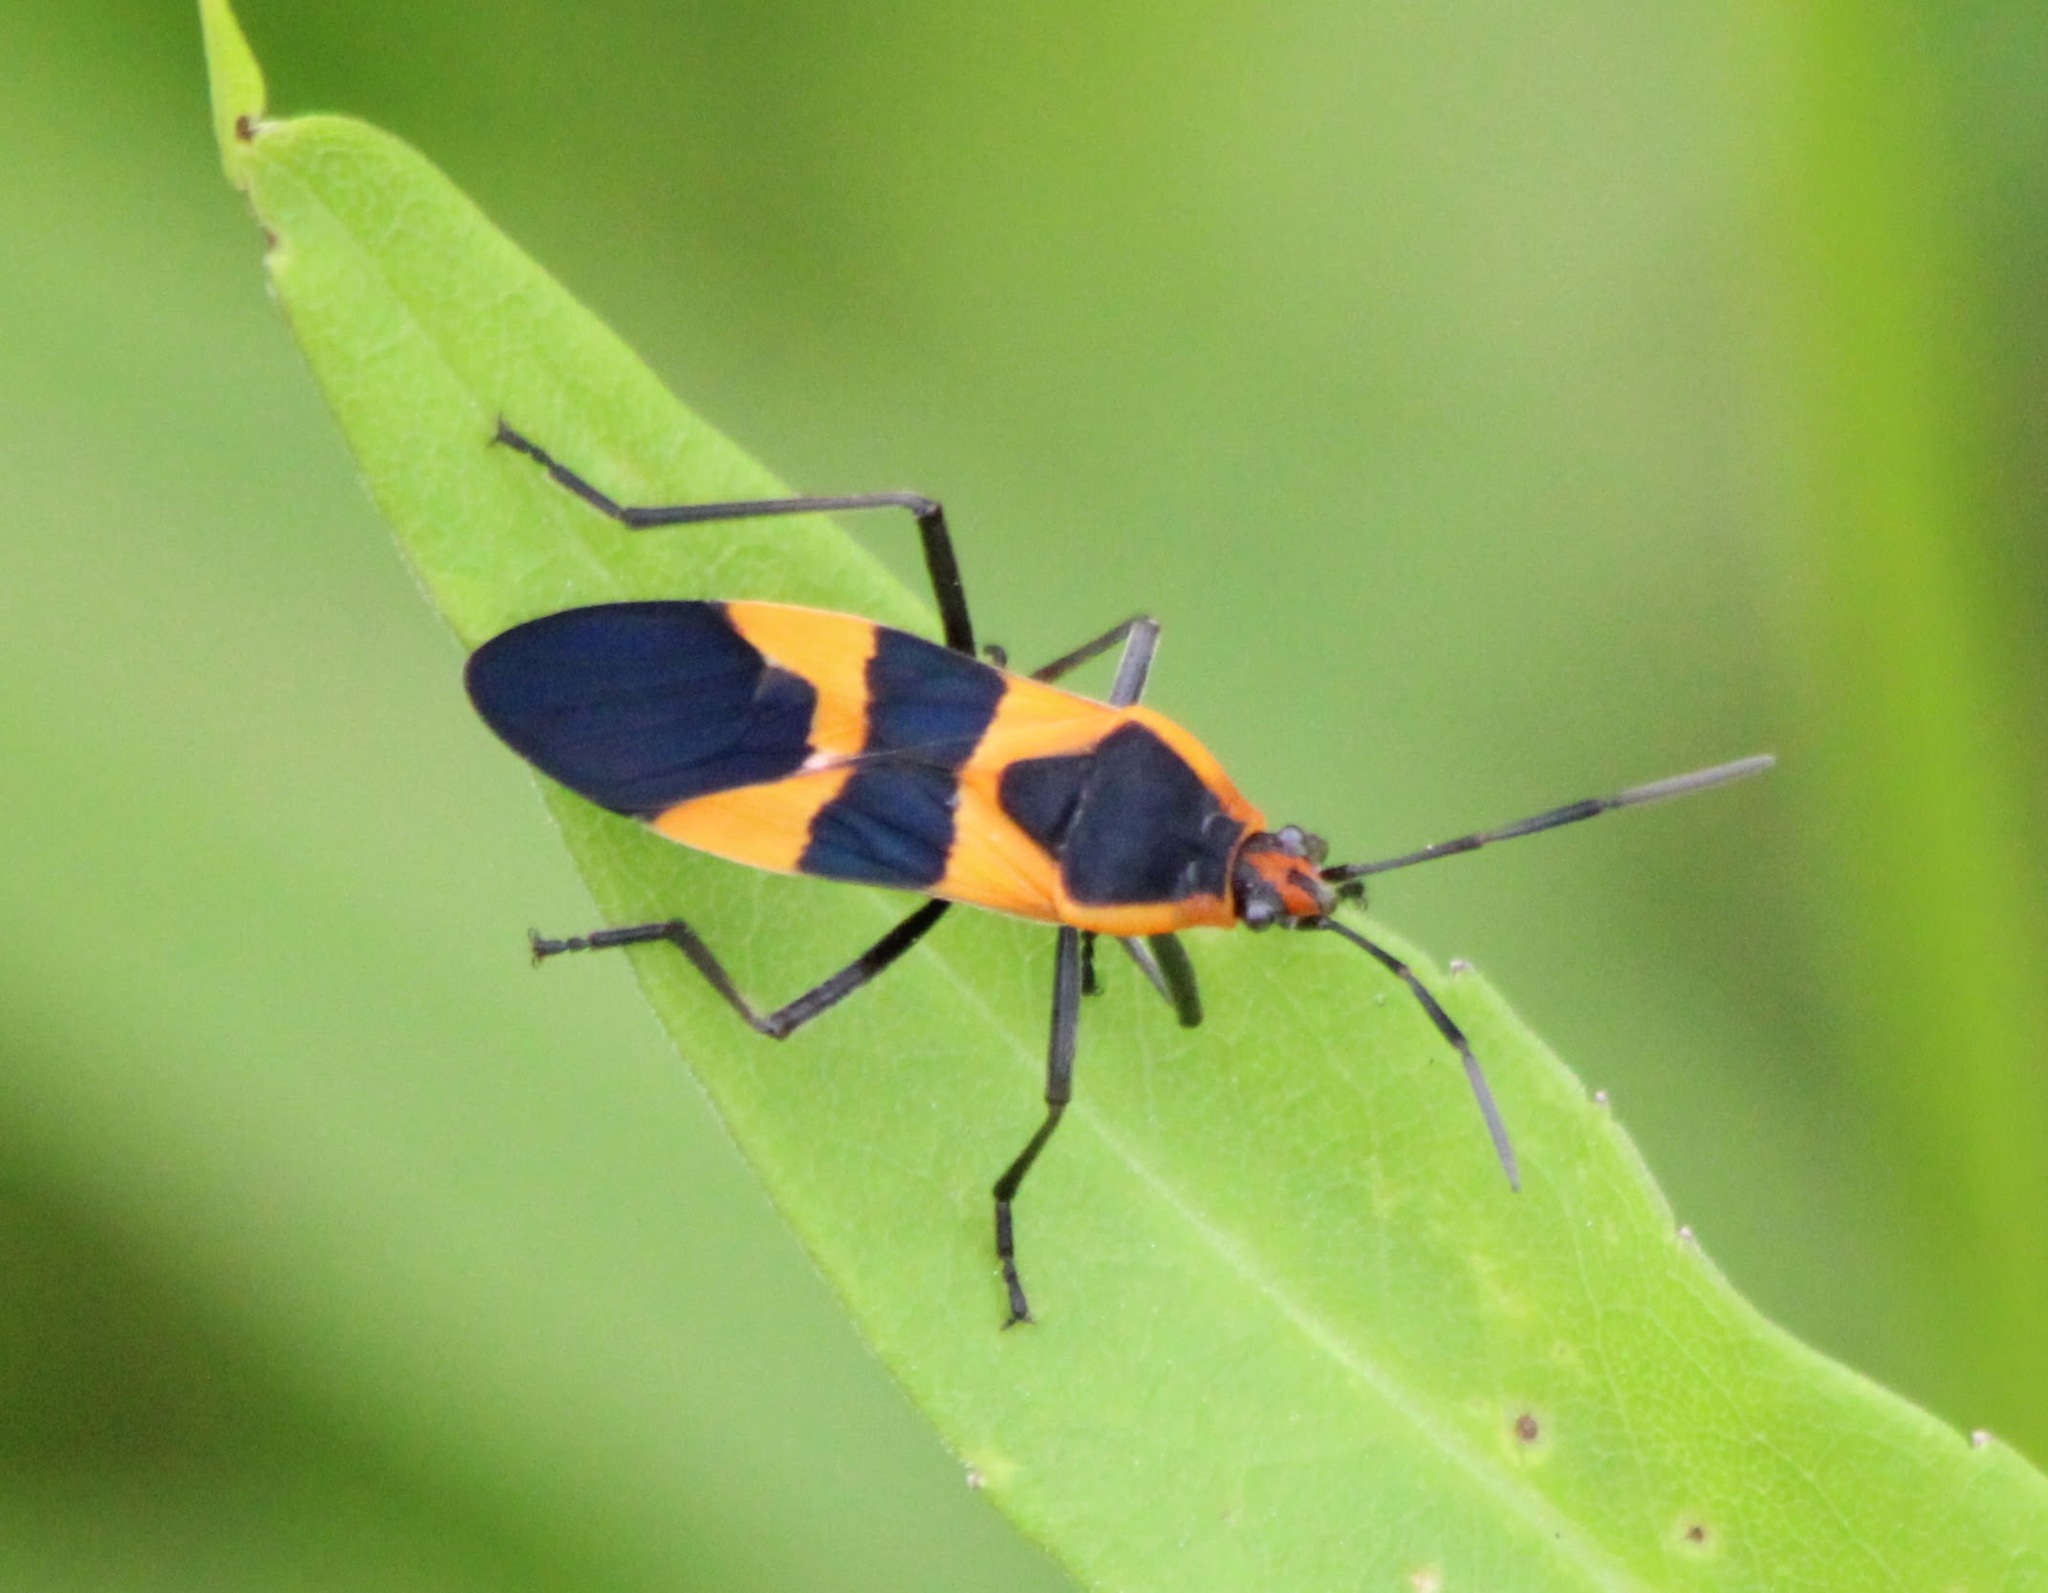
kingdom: Animalia
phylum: Arthropoda
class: Insecta
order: Hemiptera
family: Lygaeidae
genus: Oncopeltus
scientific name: Oncopeltus fasciatus
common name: Large milkweed bug
